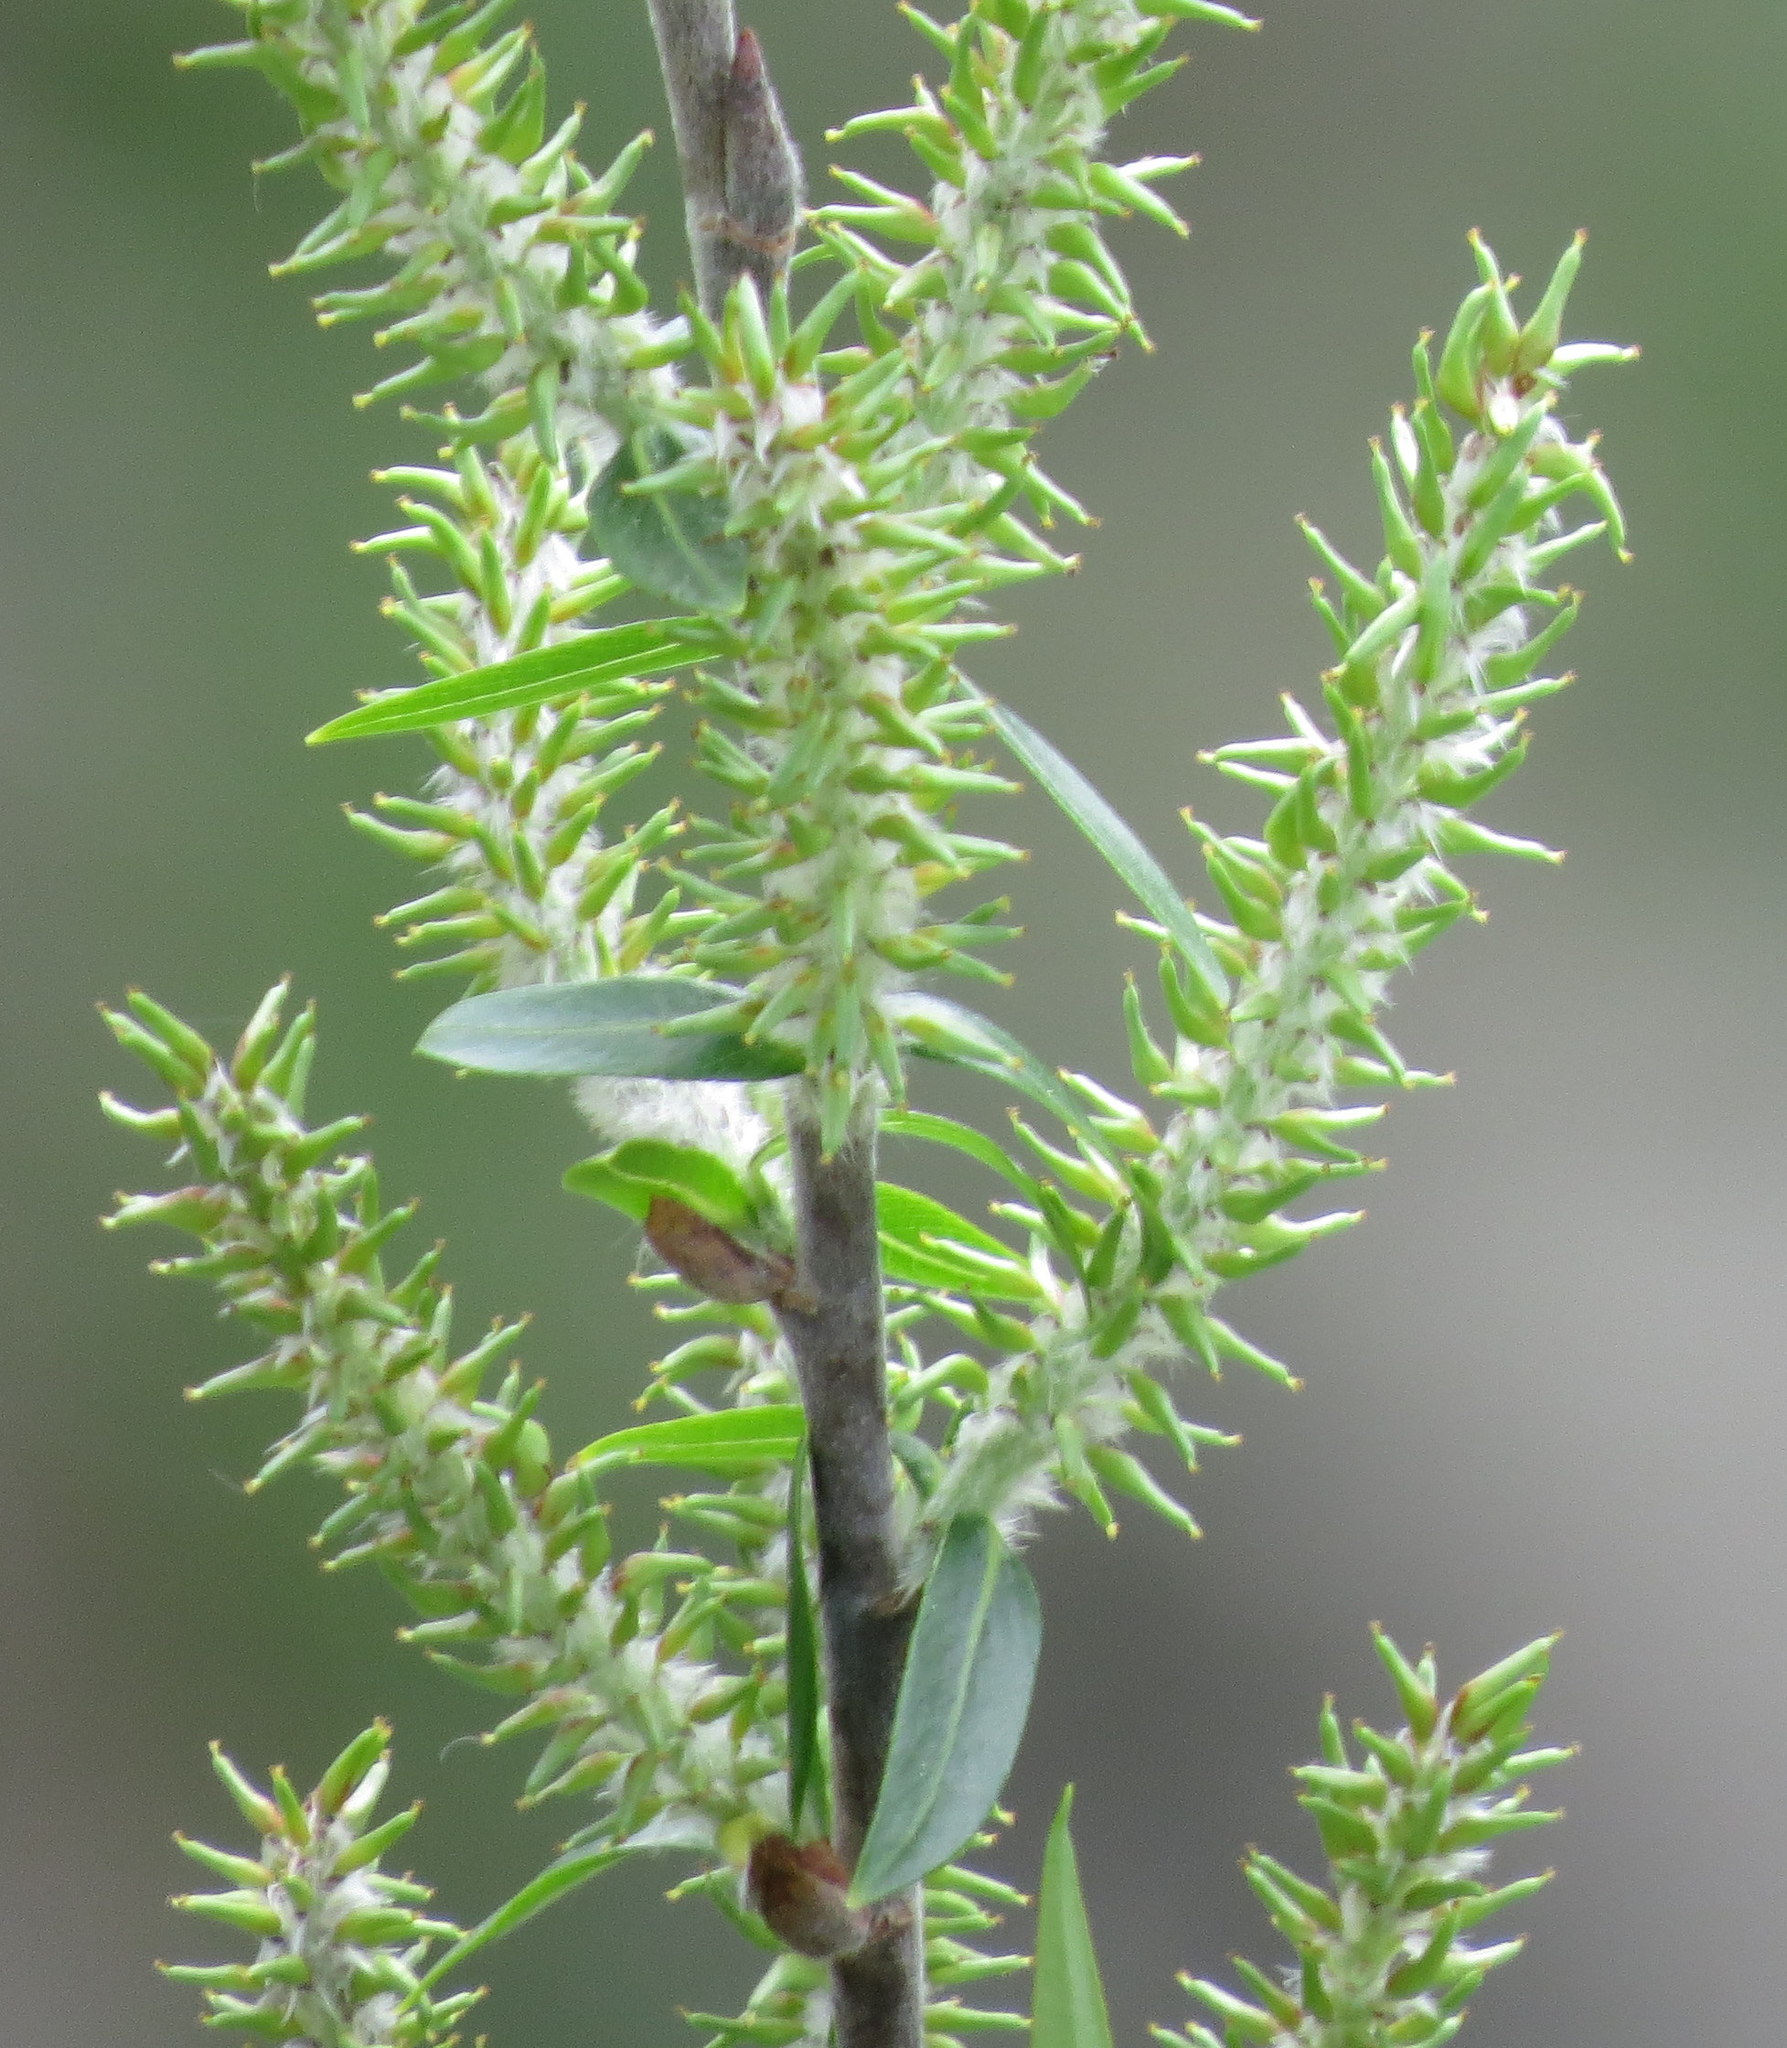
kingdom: Plantae
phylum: Tracheophyta
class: Magnoliopsida
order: Malpighiales
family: Salicaceae
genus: Salix
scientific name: Salix nigra
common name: Black willow
